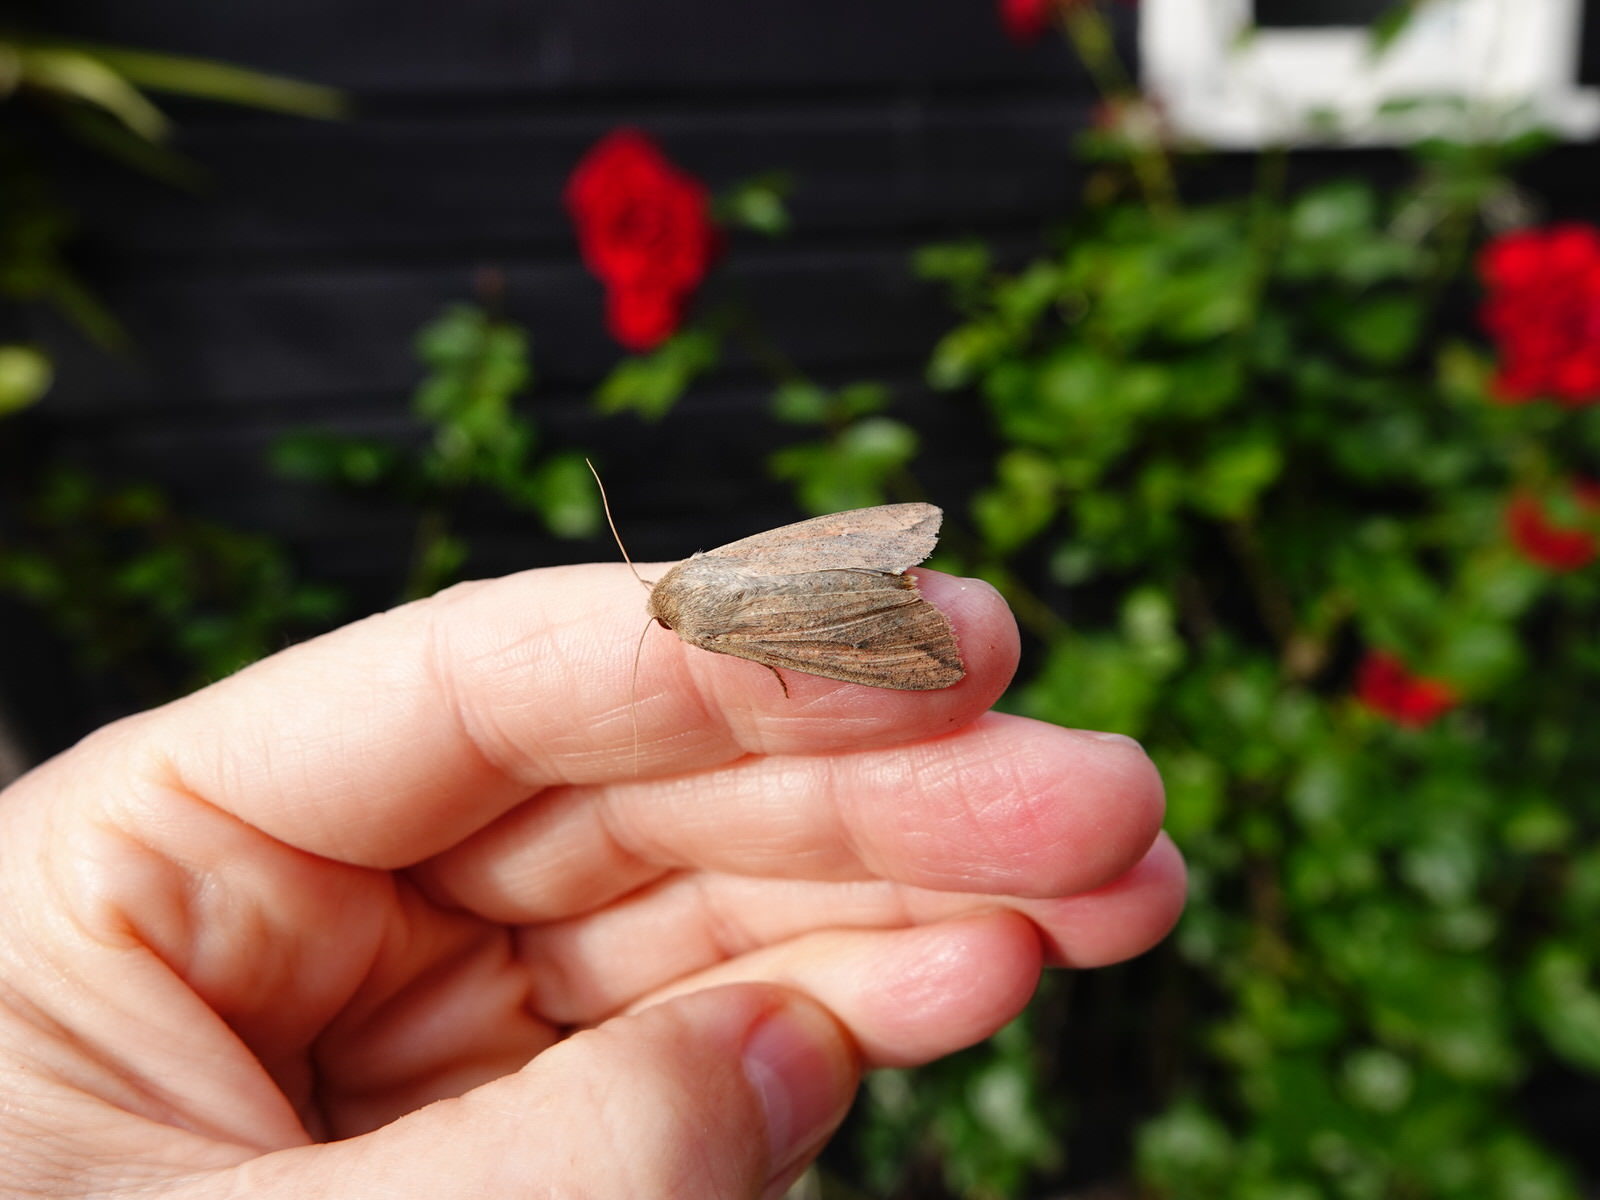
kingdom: Animalia
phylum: Arthropoda
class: Insecta
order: Lepidoptera
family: Noctuidae
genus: Mythimna
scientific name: Mythimna separata
